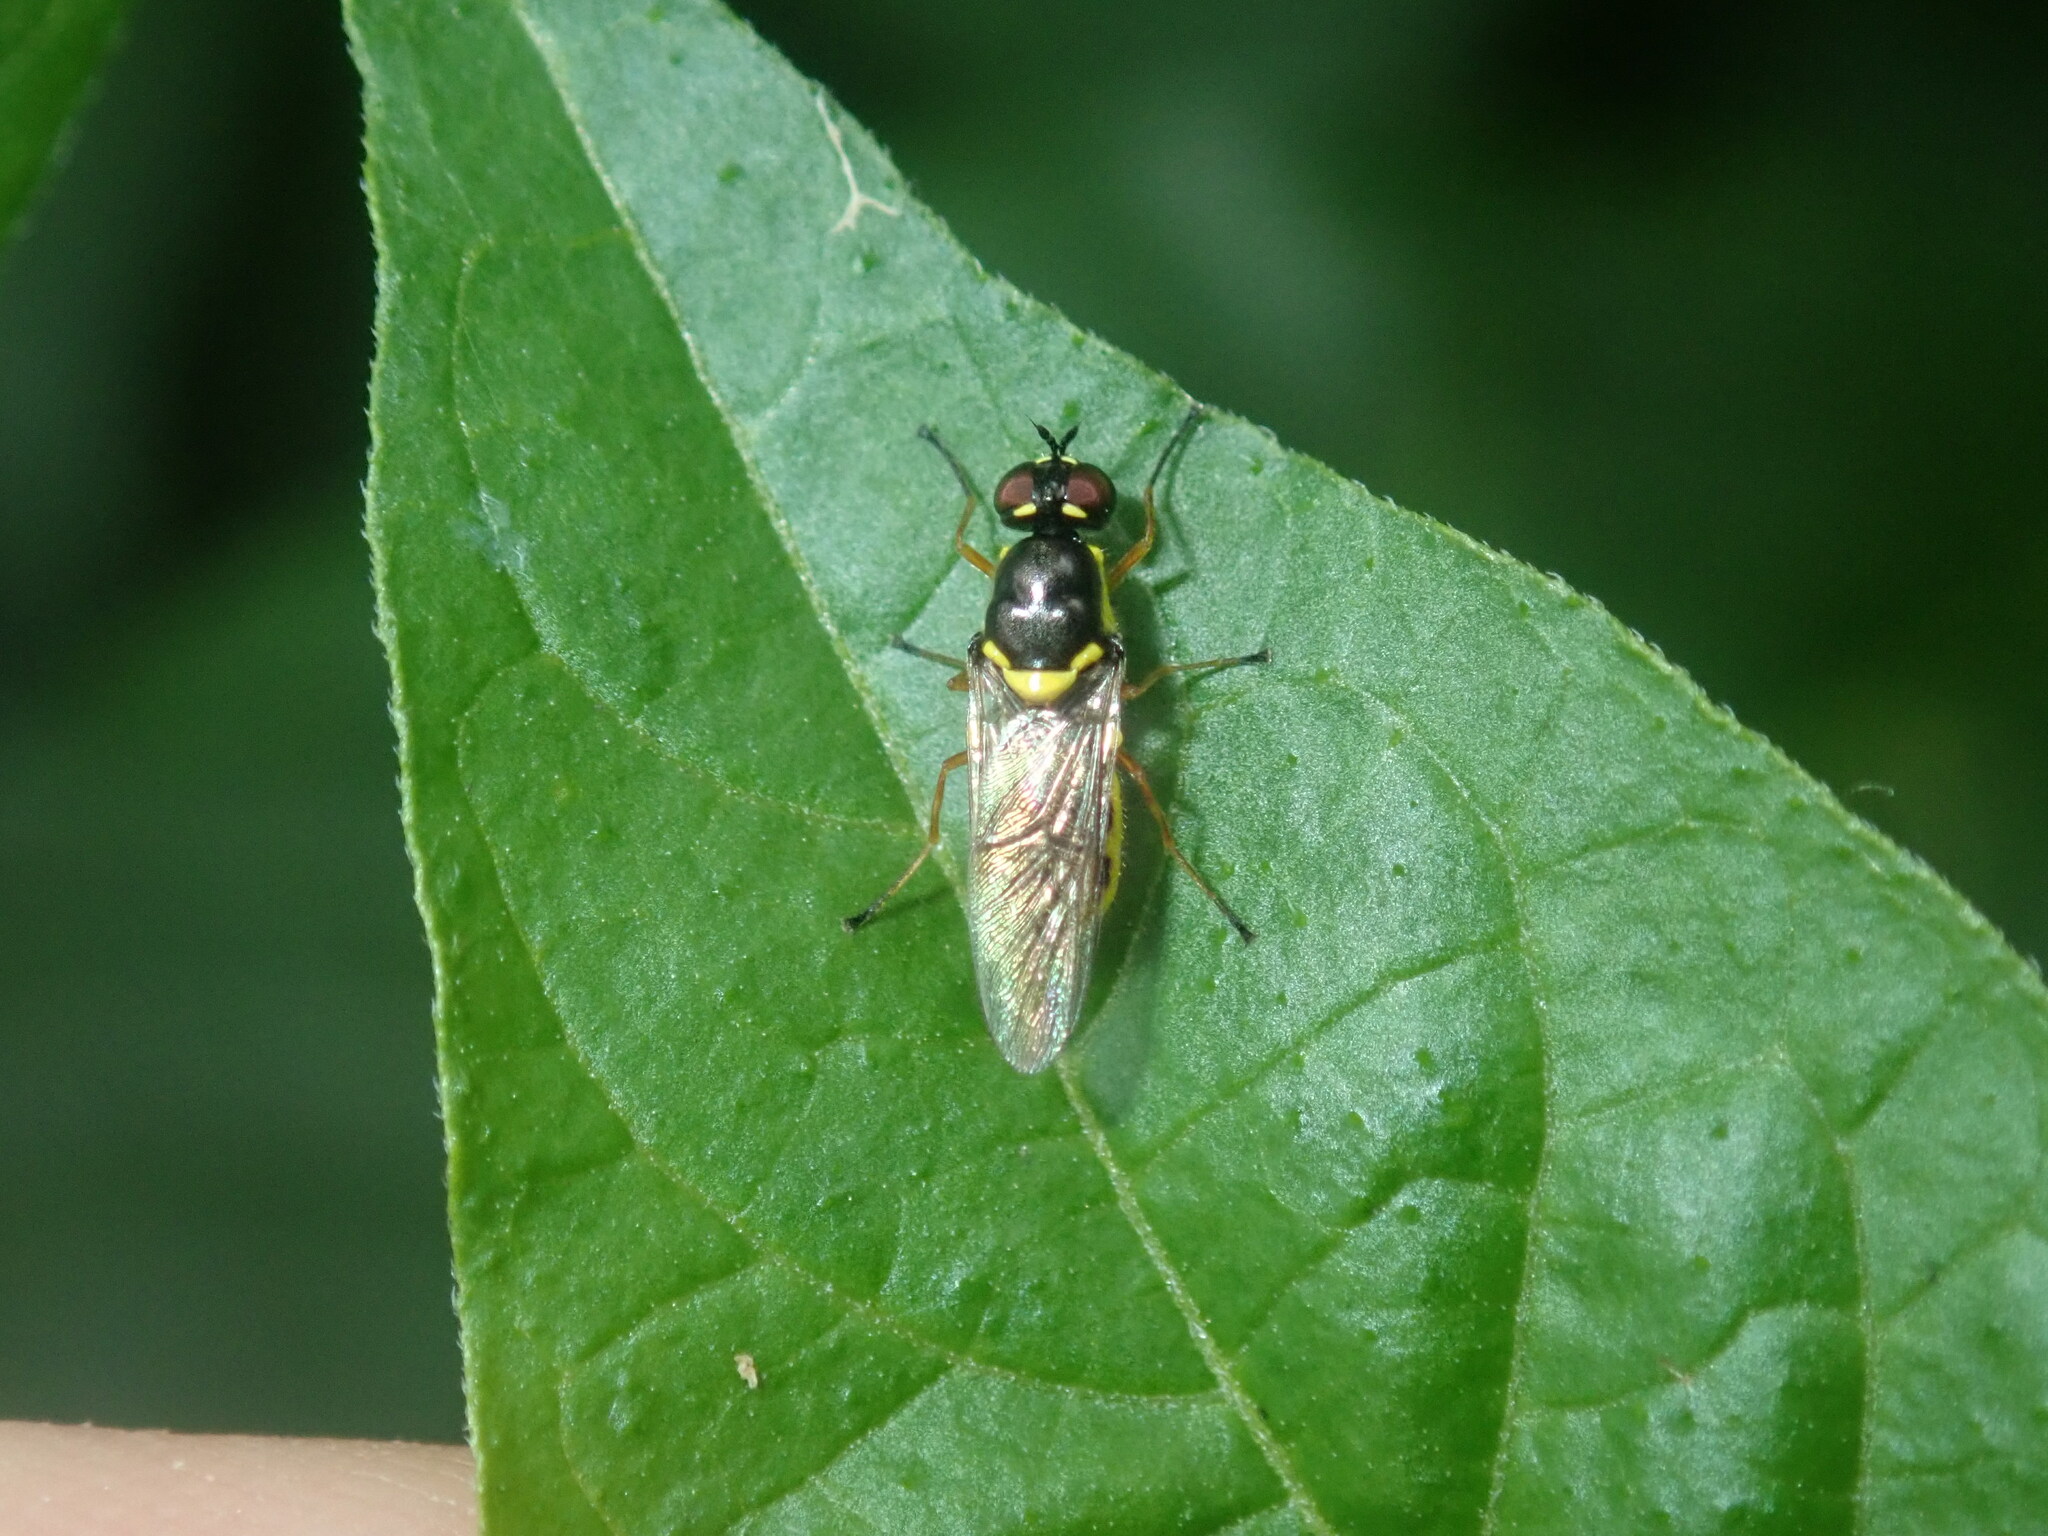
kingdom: Animalia
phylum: Arthropoda
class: Insecta
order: Diptera
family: Stratiomyidae
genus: Acanthasargus
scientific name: Acanthasargus flavipes
